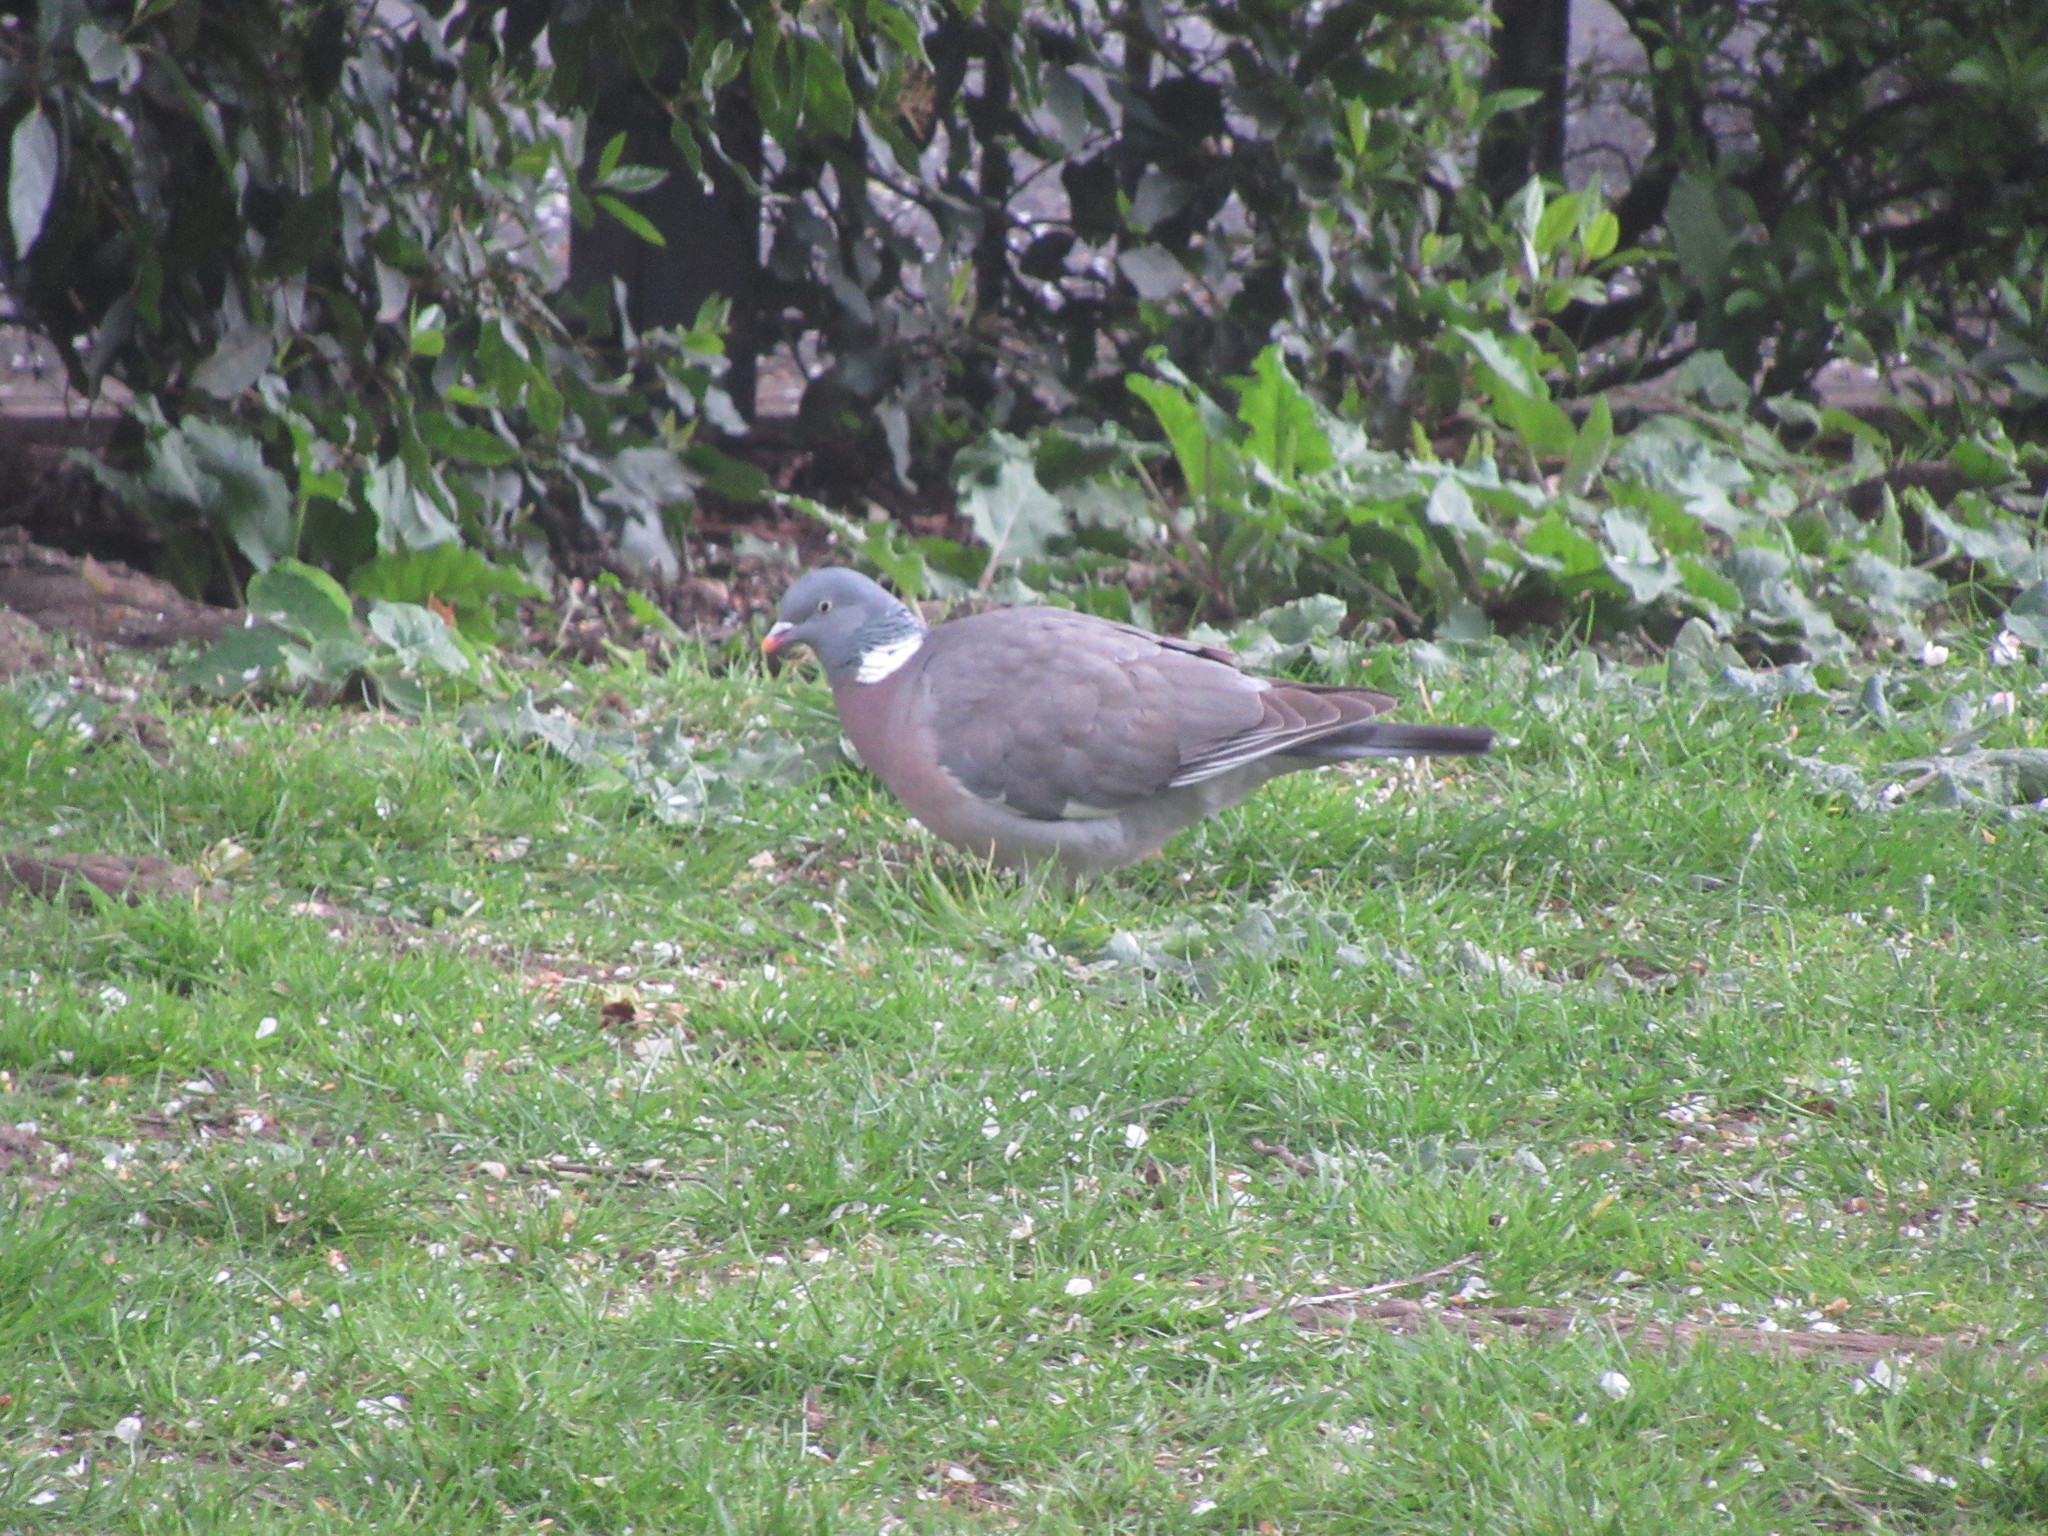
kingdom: Animalia
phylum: Chordata
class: Aves
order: Columbiformes
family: Columbidae
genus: Columba
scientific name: Columba palumbus
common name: Common wood pigeon
